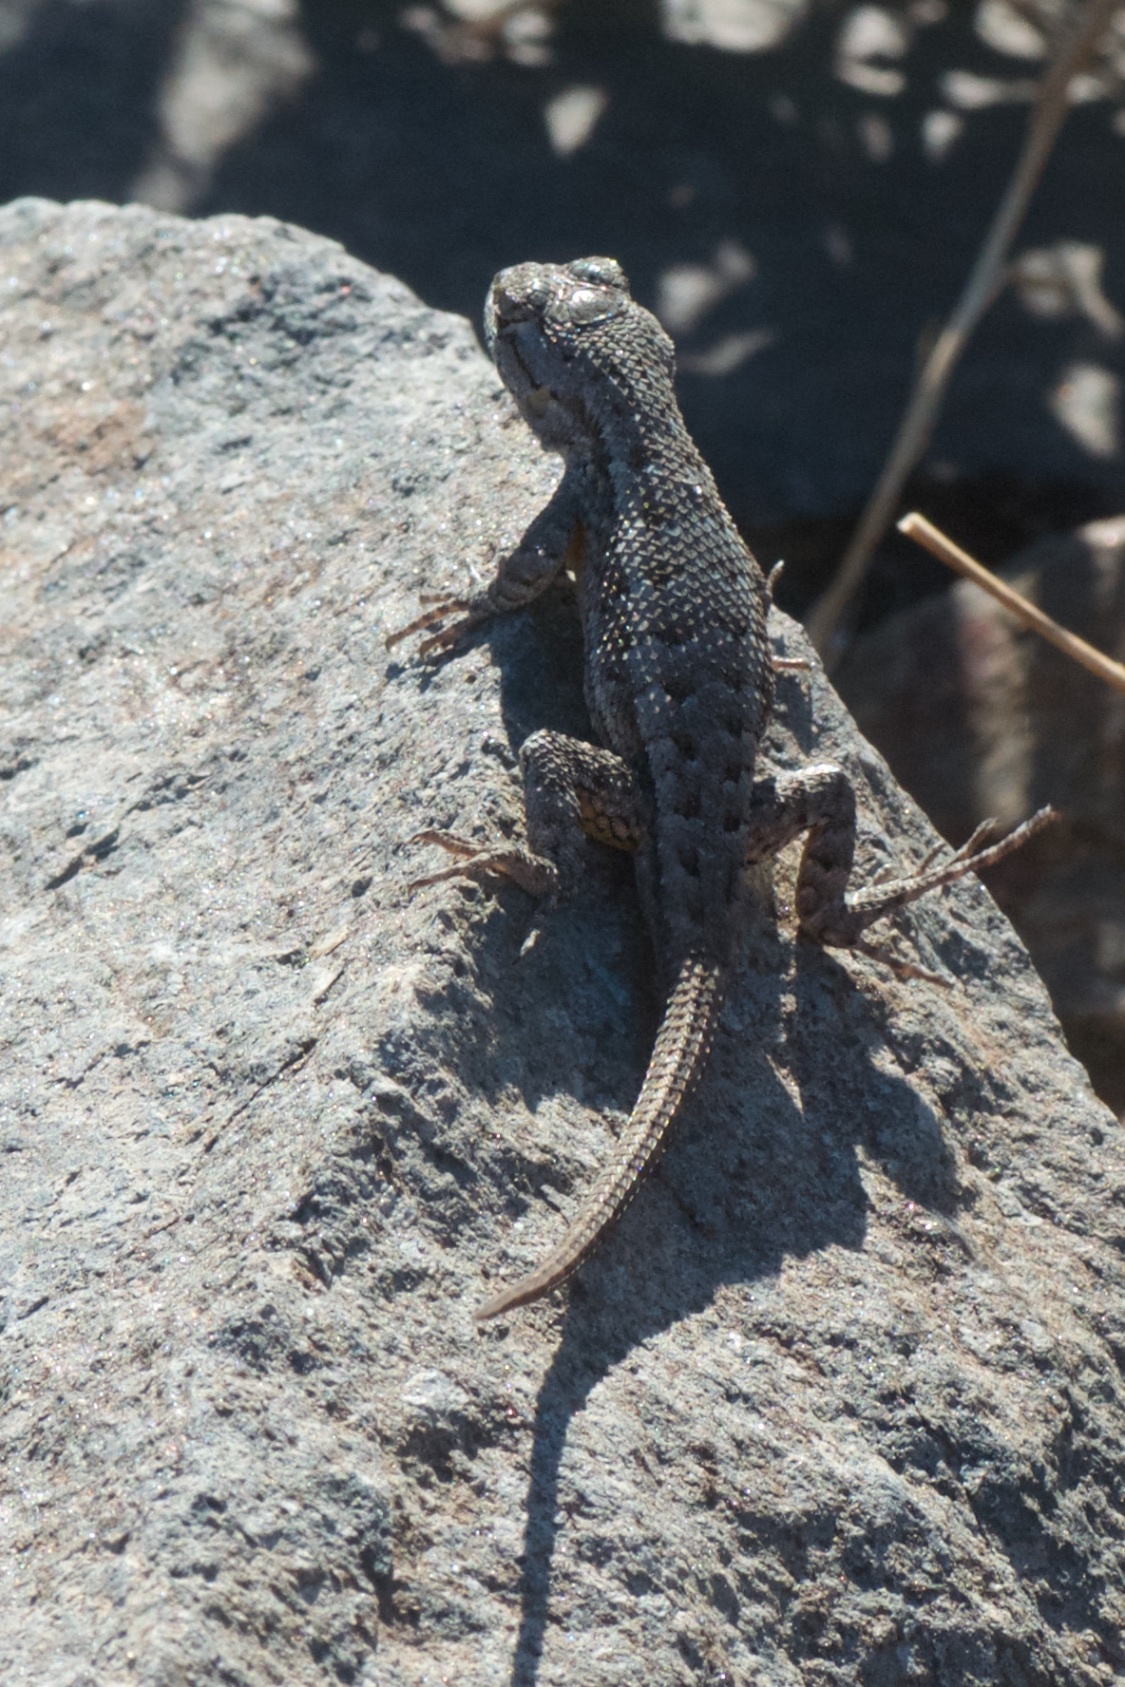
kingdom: Animalia
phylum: Chordata
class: Squamata
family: Phrynosomatidae
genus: Sceloporus
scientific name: Sceloporus occidentalis
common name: Western fence lizard
